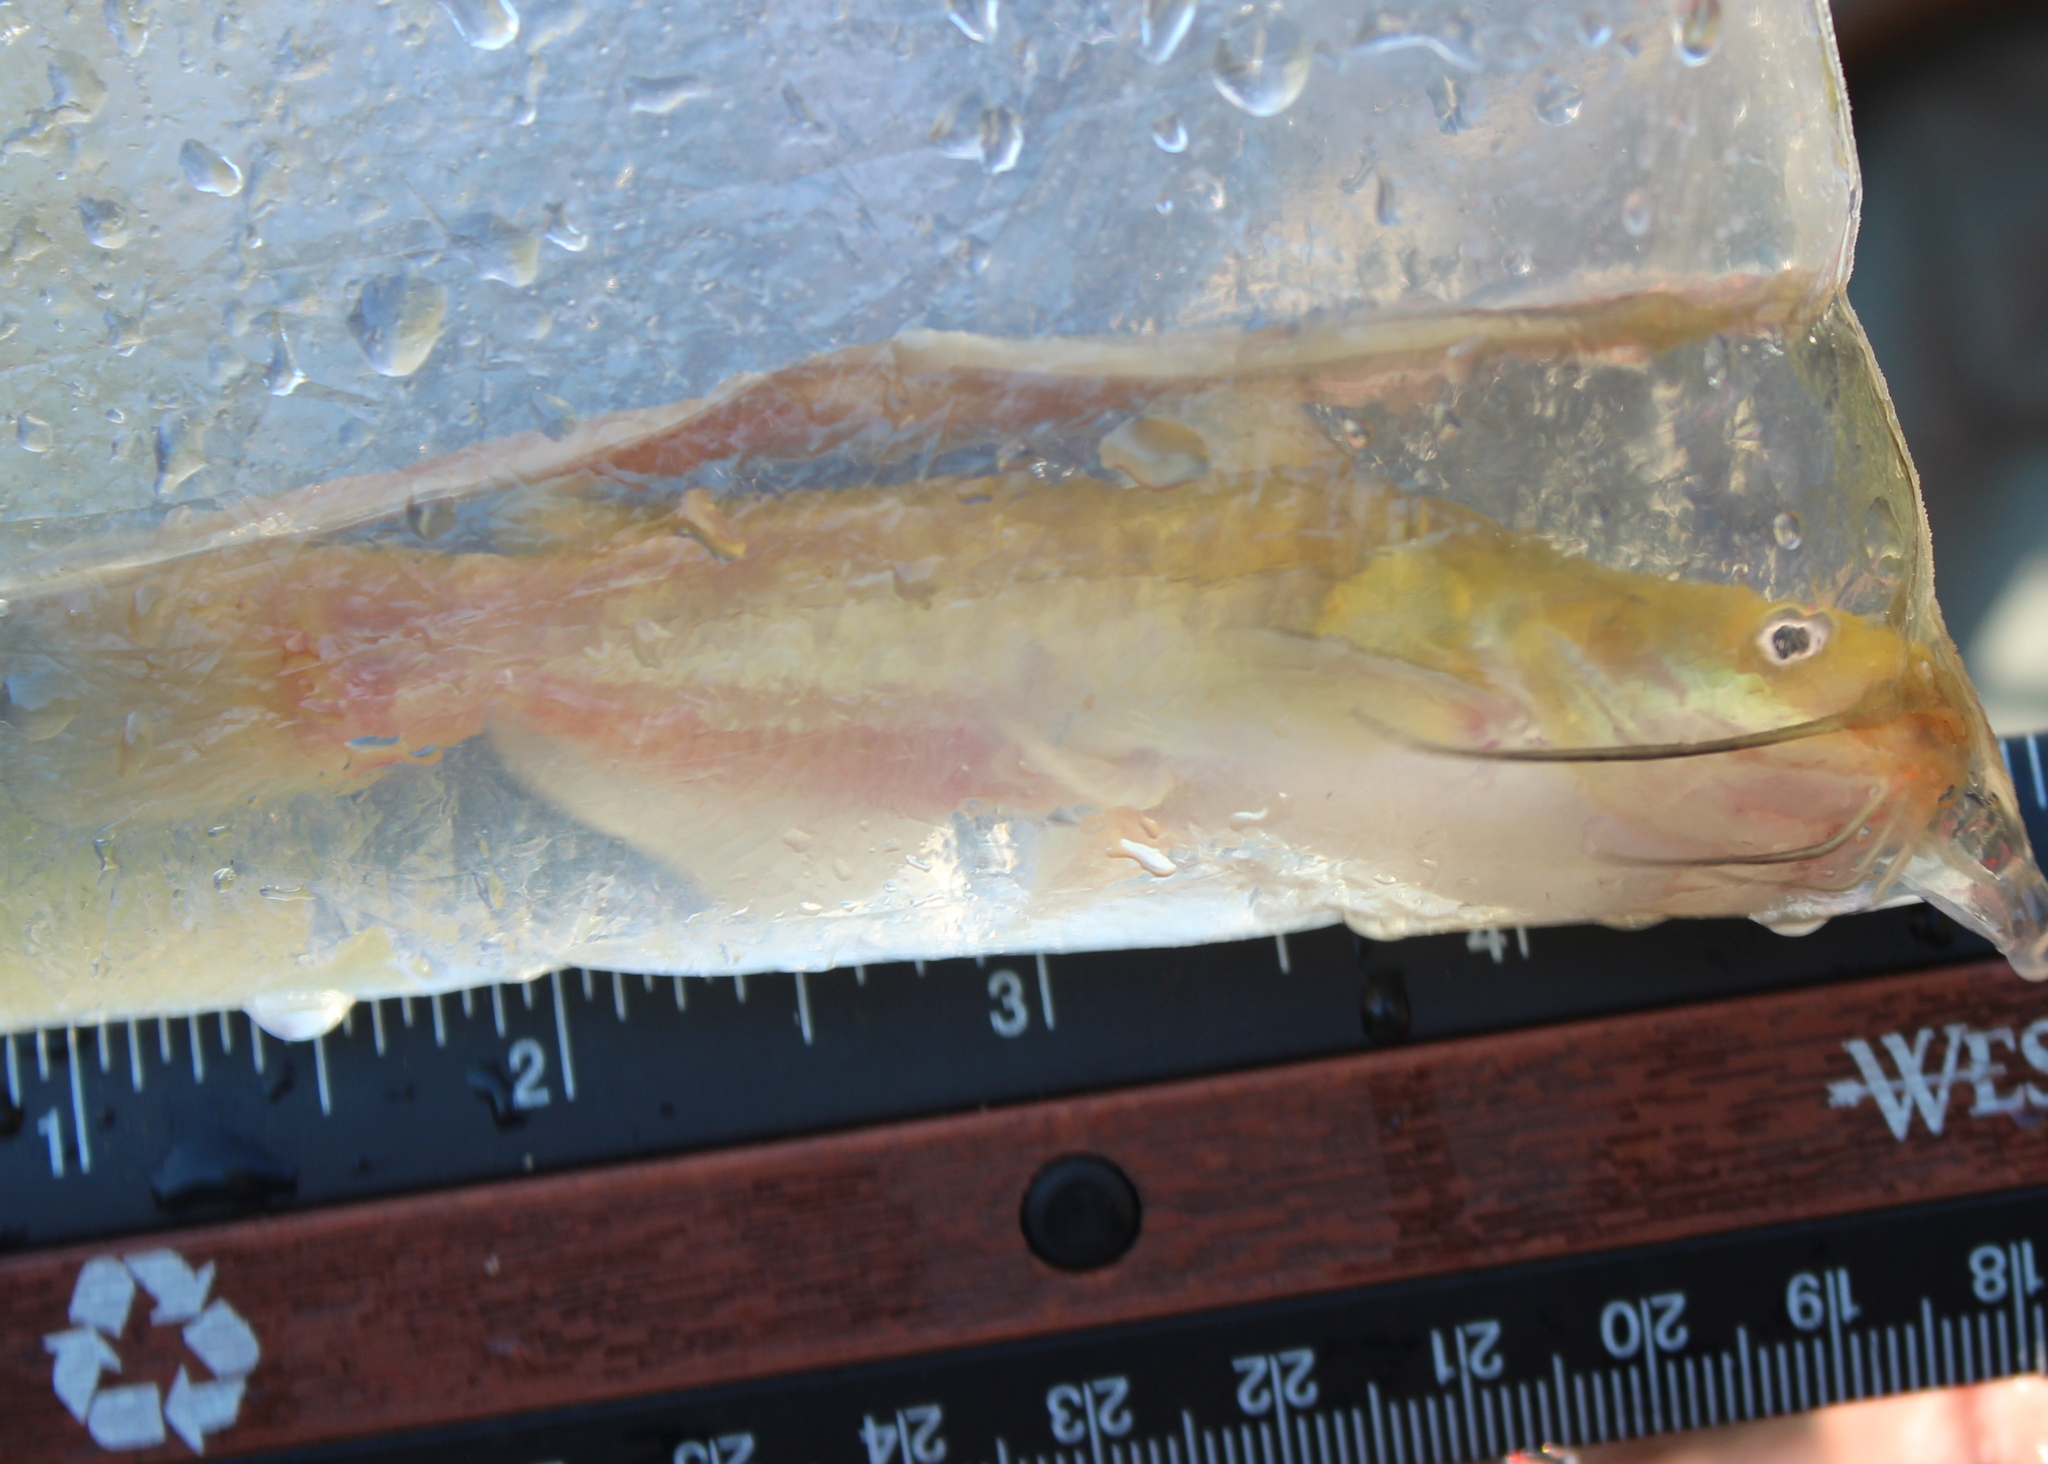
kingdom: Animalia
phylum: Chordata
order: Siluriformes
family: Ictaluridae
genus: Ameiurus
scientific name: Ameiurus nebulosus
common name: Brown bullhead
